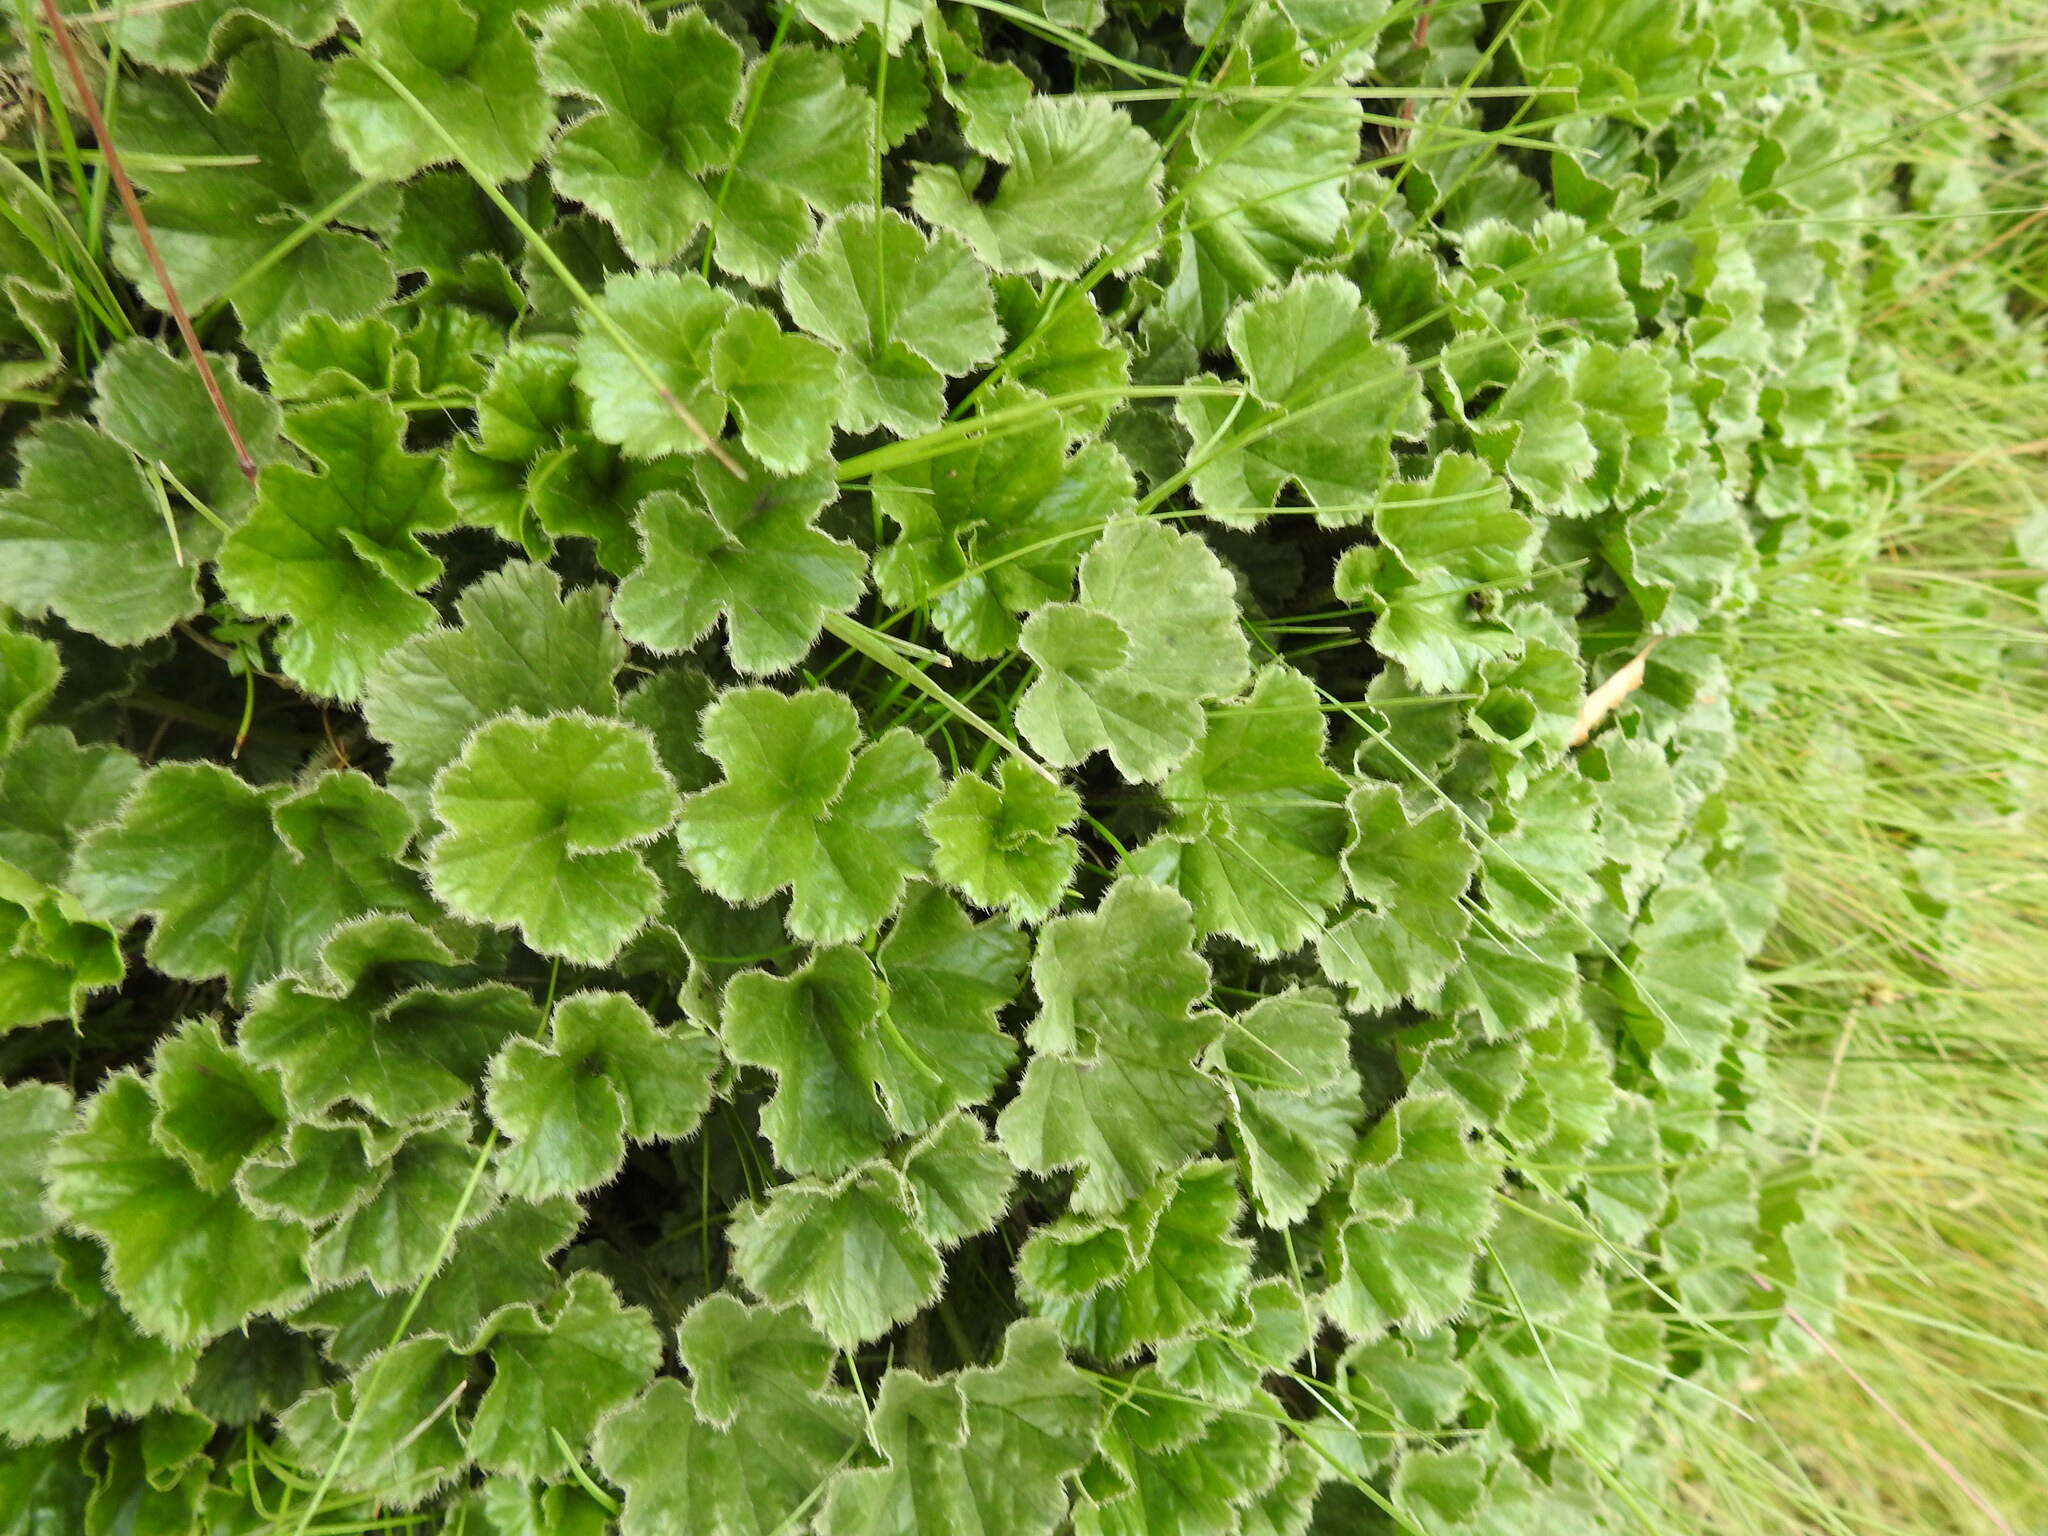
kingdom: Plantae
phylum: Tracheophyta
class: Magnoliopsida
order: Gunnerales
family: Gunneraceae
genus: Gunnera
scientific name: Gunnera magellanica
